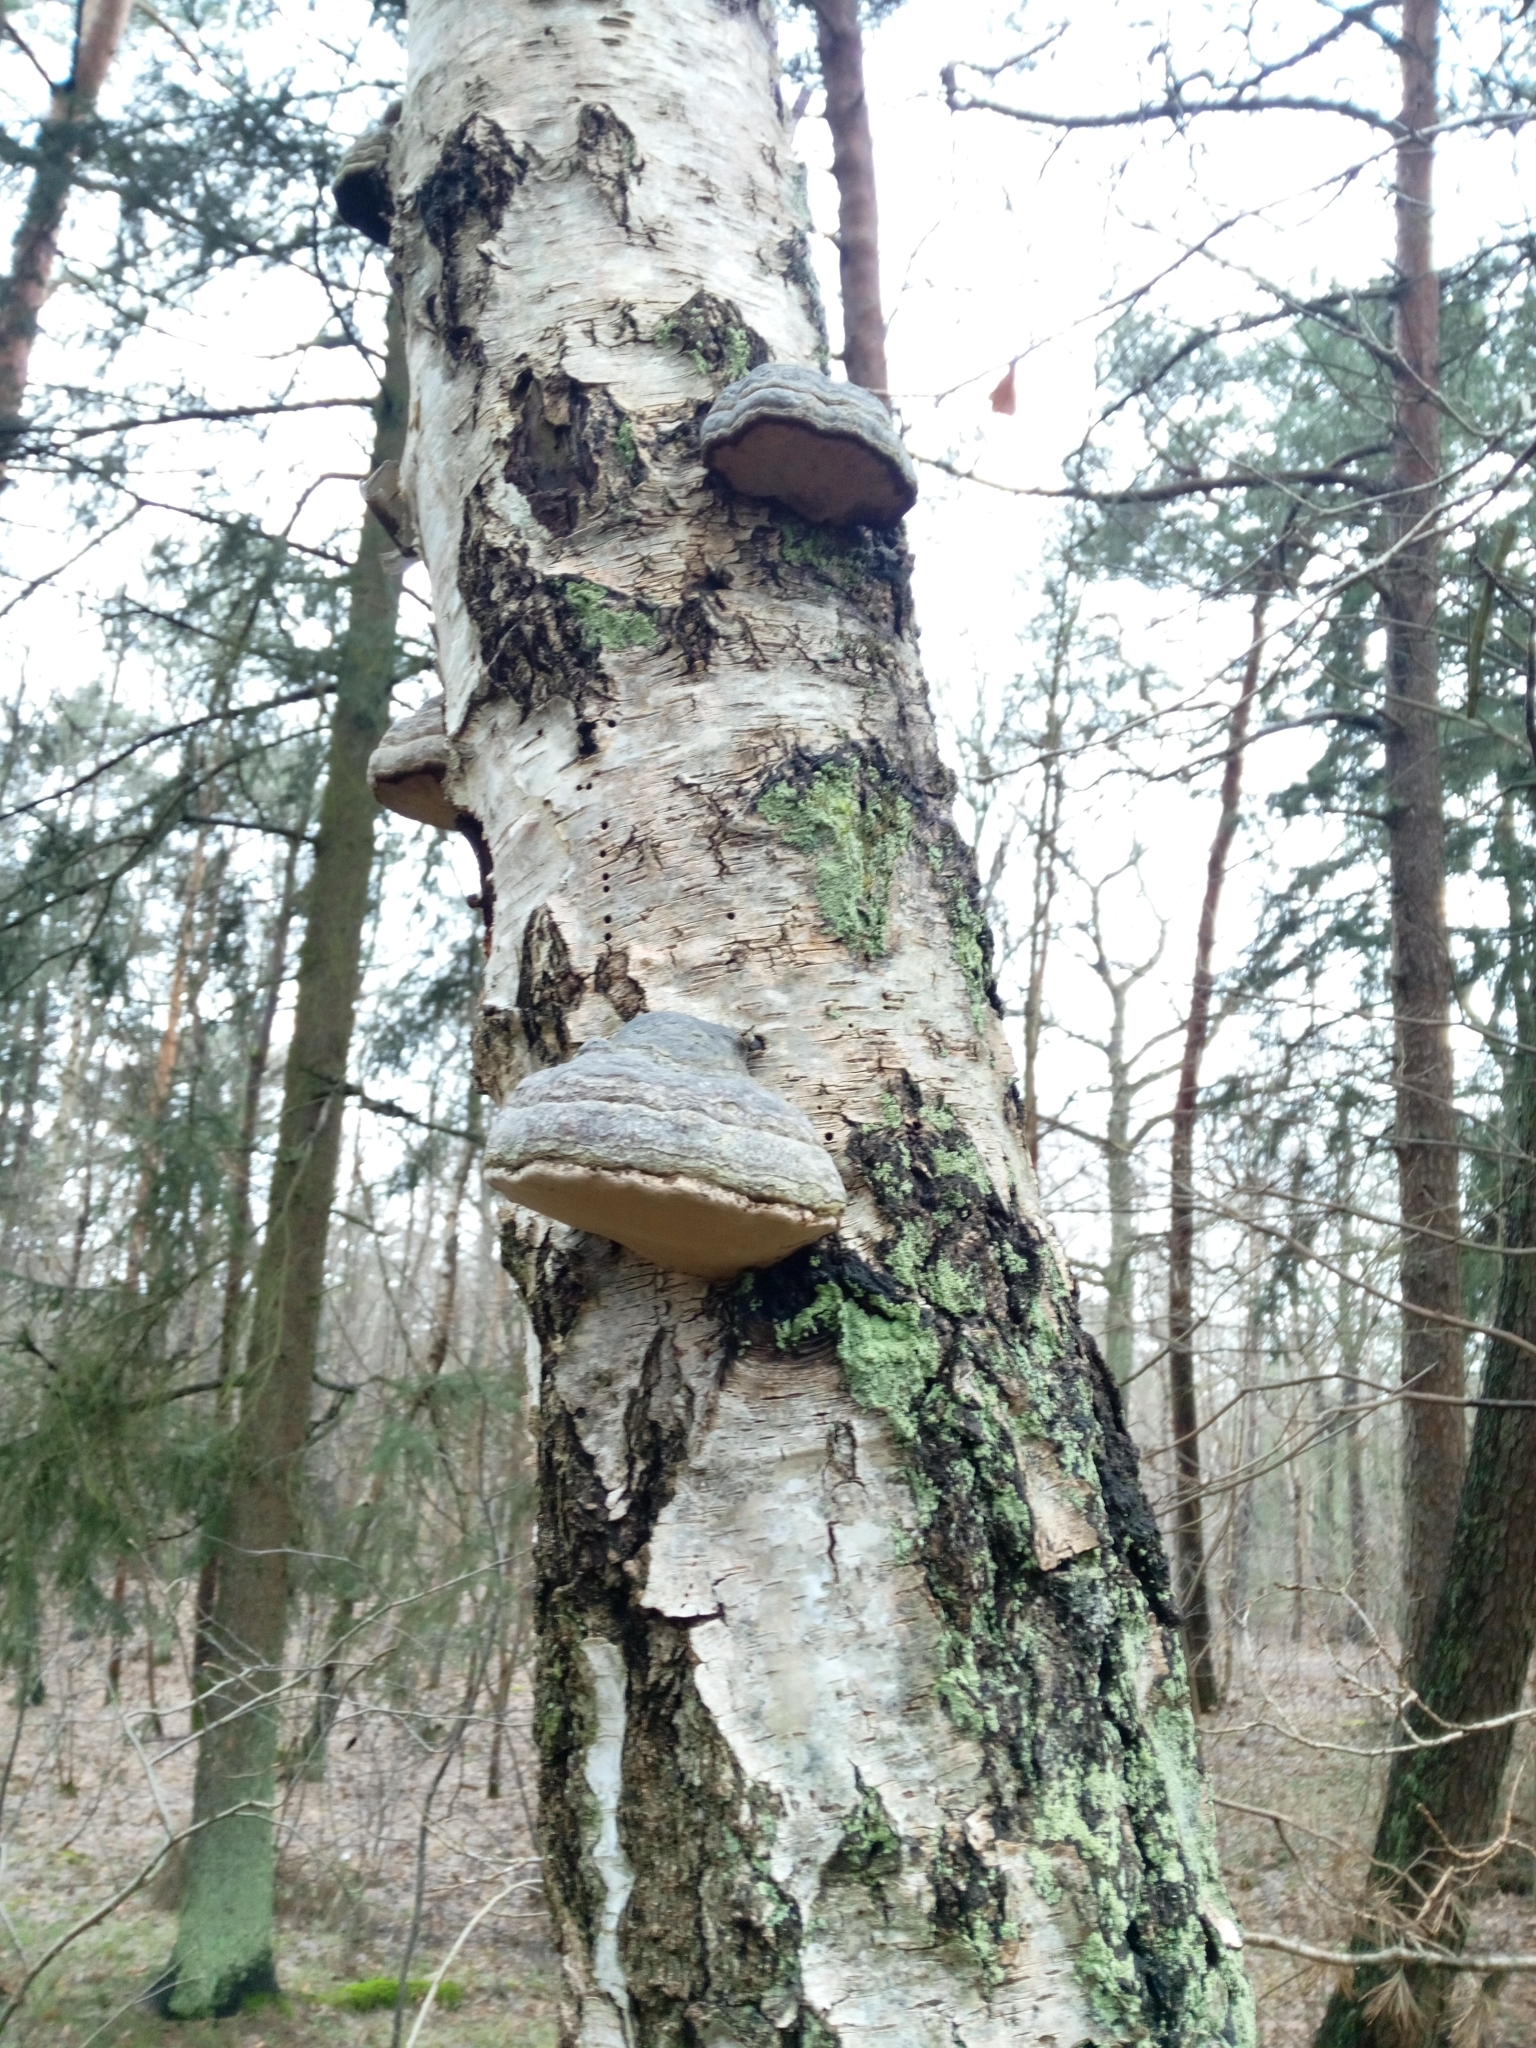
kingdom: Fungi
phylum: Basidiomycota
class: Agaricomycetes
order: Polyporales
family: Polyporaceae
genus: Fomes
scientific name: Fomes fomentarius
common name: Hoof fungus
